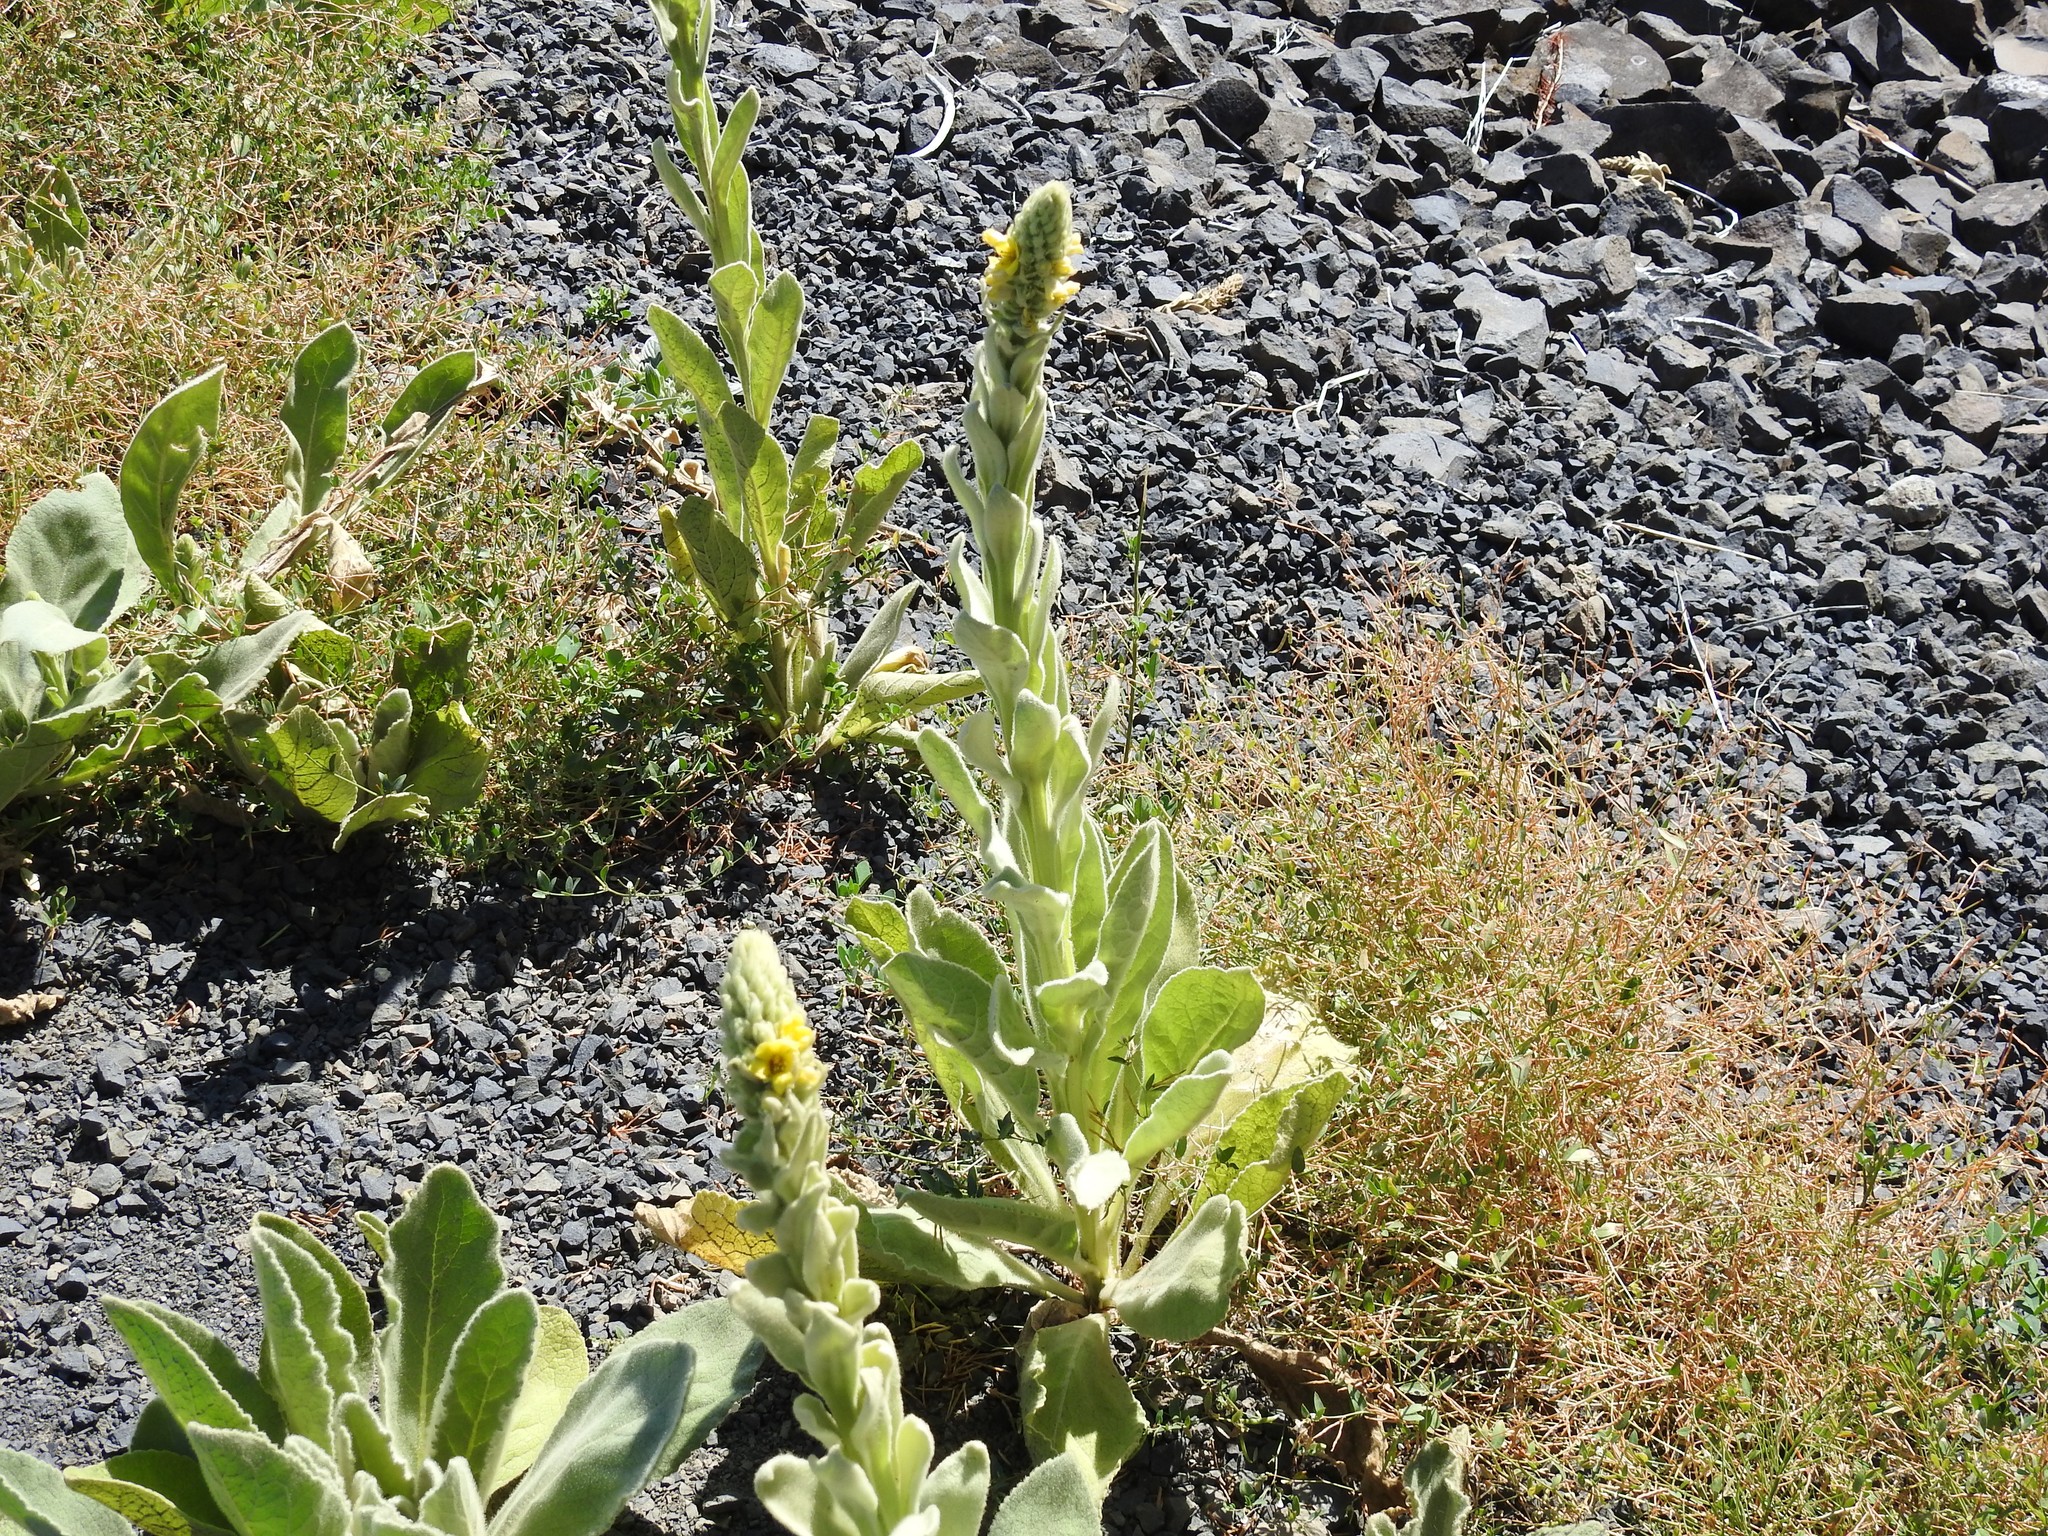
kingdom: Plantae
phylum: Tracheophyta
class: Magnoliopsida
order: Lamiales
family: Scrophulariaceae
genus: Verbascum
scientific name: Verbascum thapsus
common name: Common mullein
